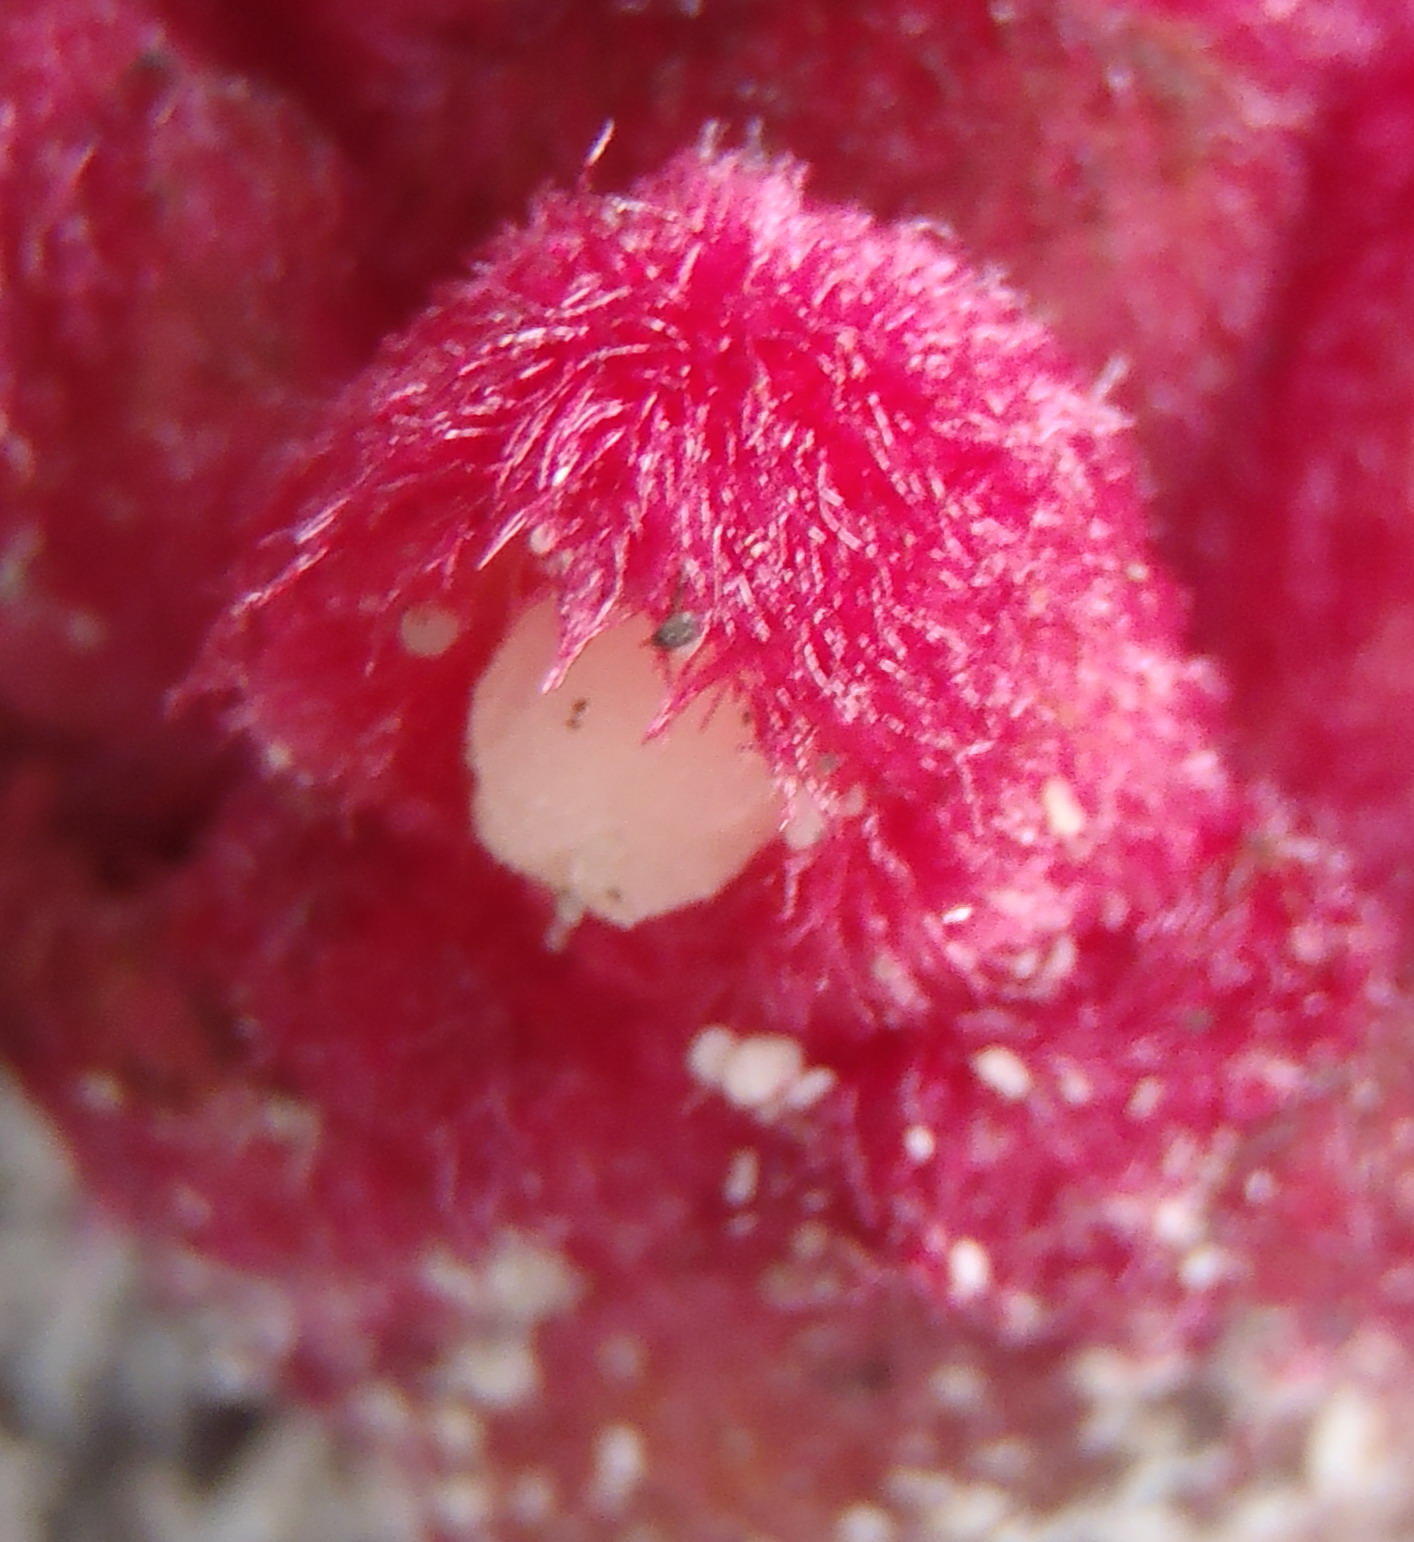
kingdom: Plantae
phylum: Tracheophyta
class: Magnoliopsida
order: Lamiales
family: Orobanchaceae
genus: Hyobanche
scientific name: Hyobanche sanguinea
